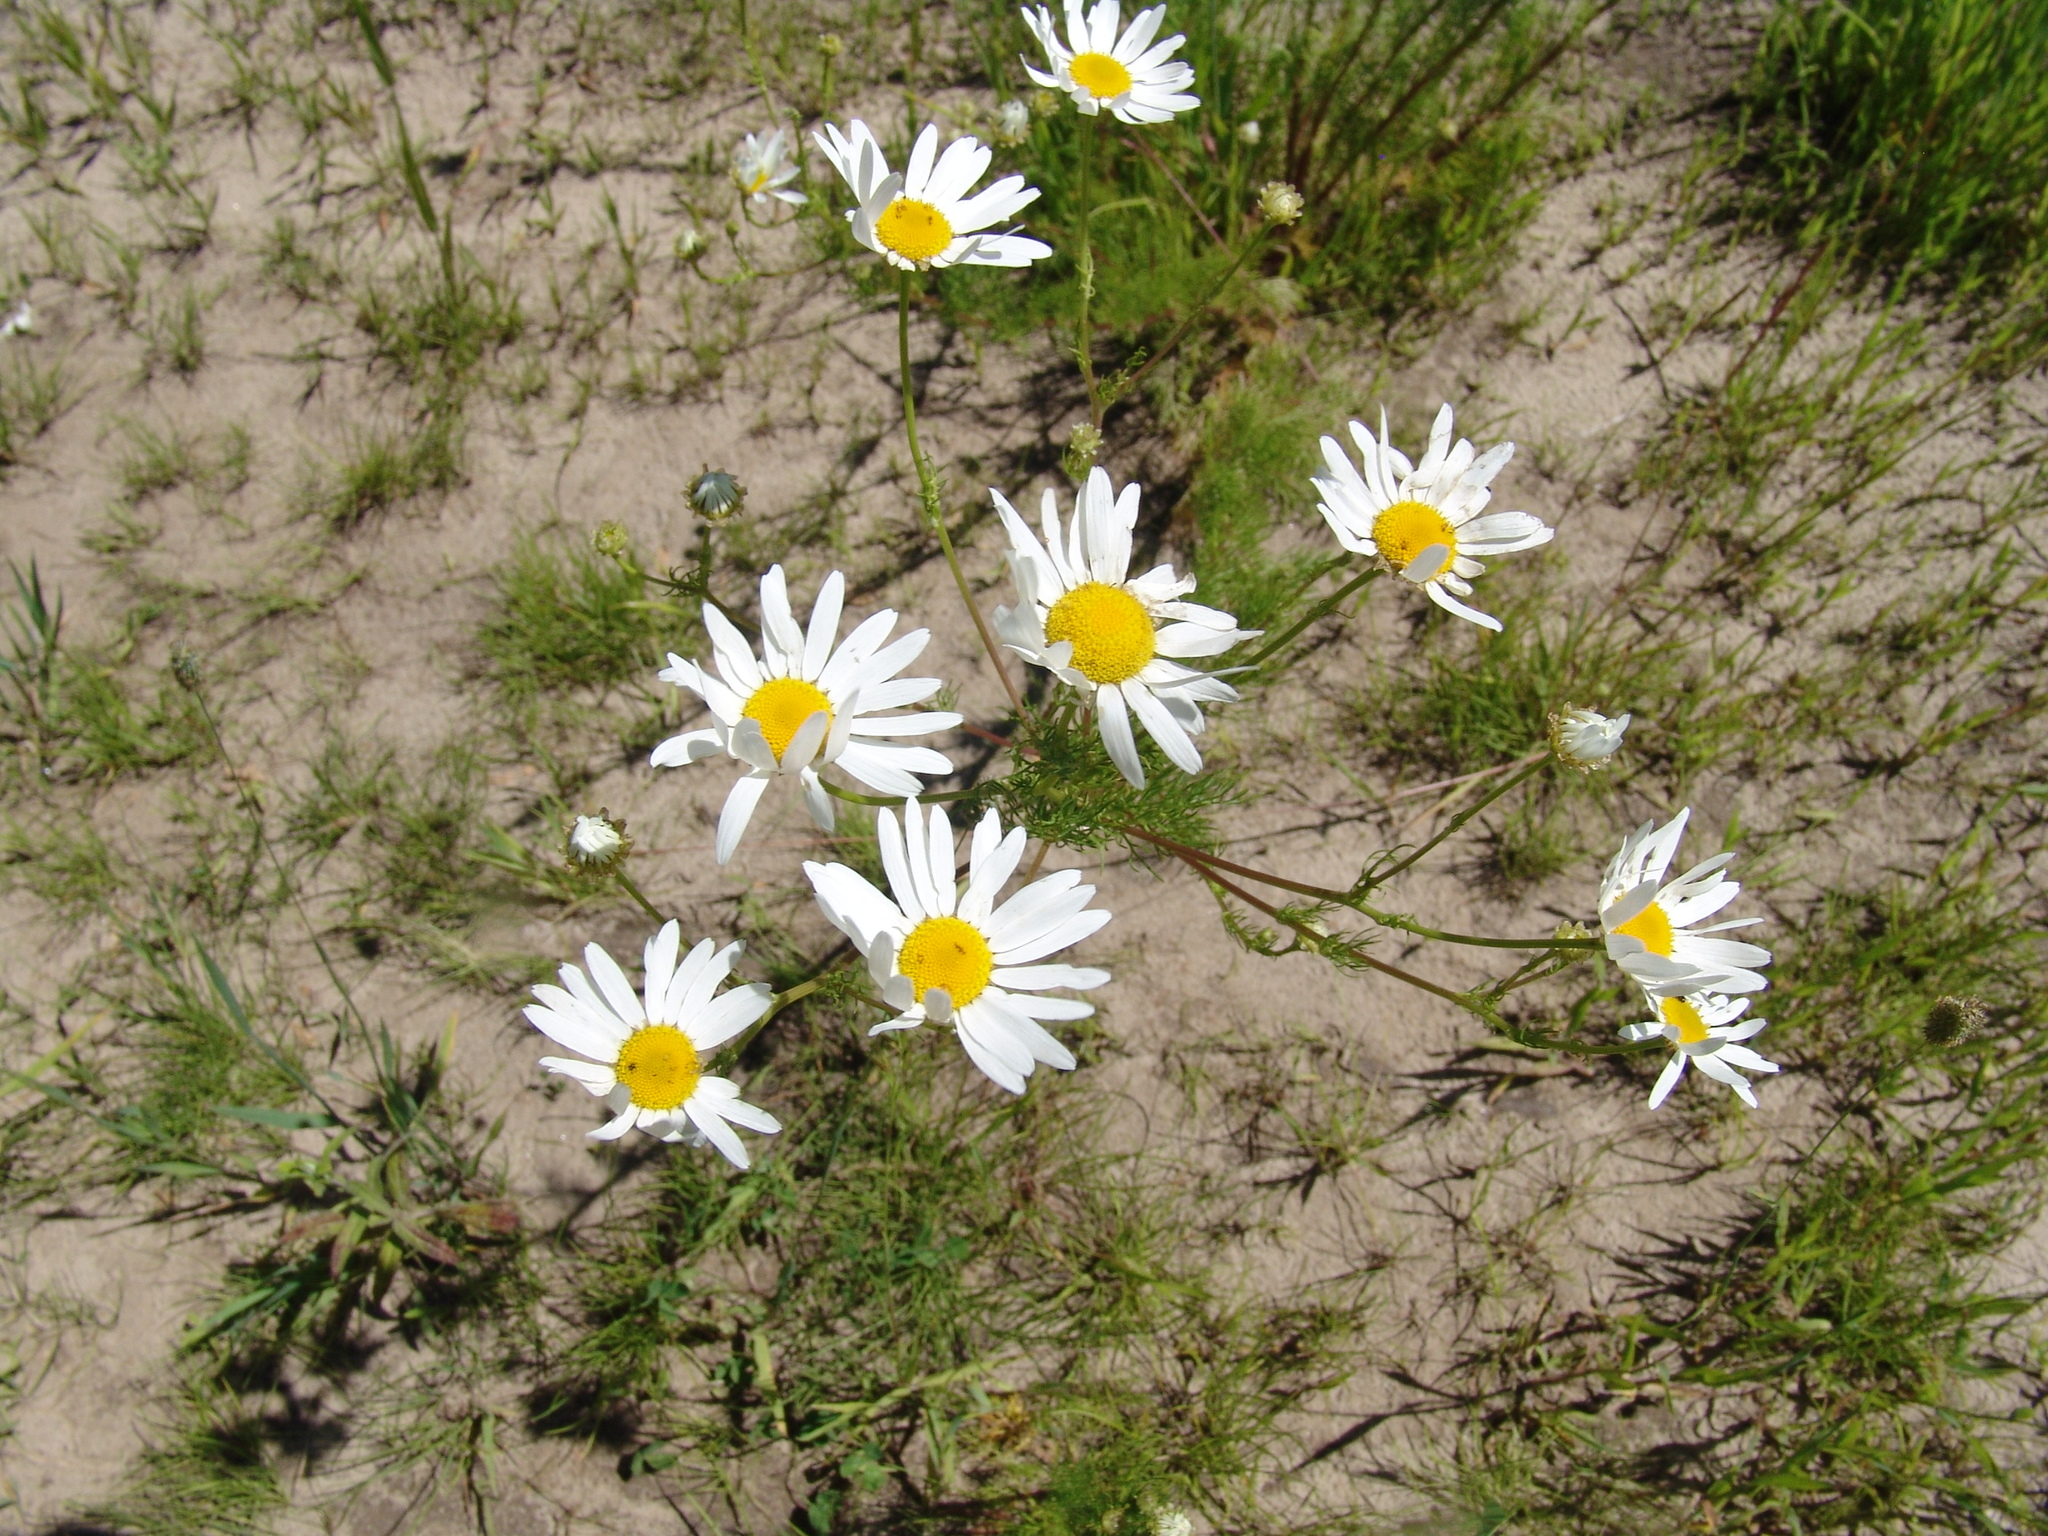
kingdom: Plantae
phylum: Tracheophyta
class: Magnoliopsida
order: Asterales
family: Asteraceae
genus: Tripleurospermum
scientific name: Tripleurospermum inodorum
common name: Scentless mayweed
